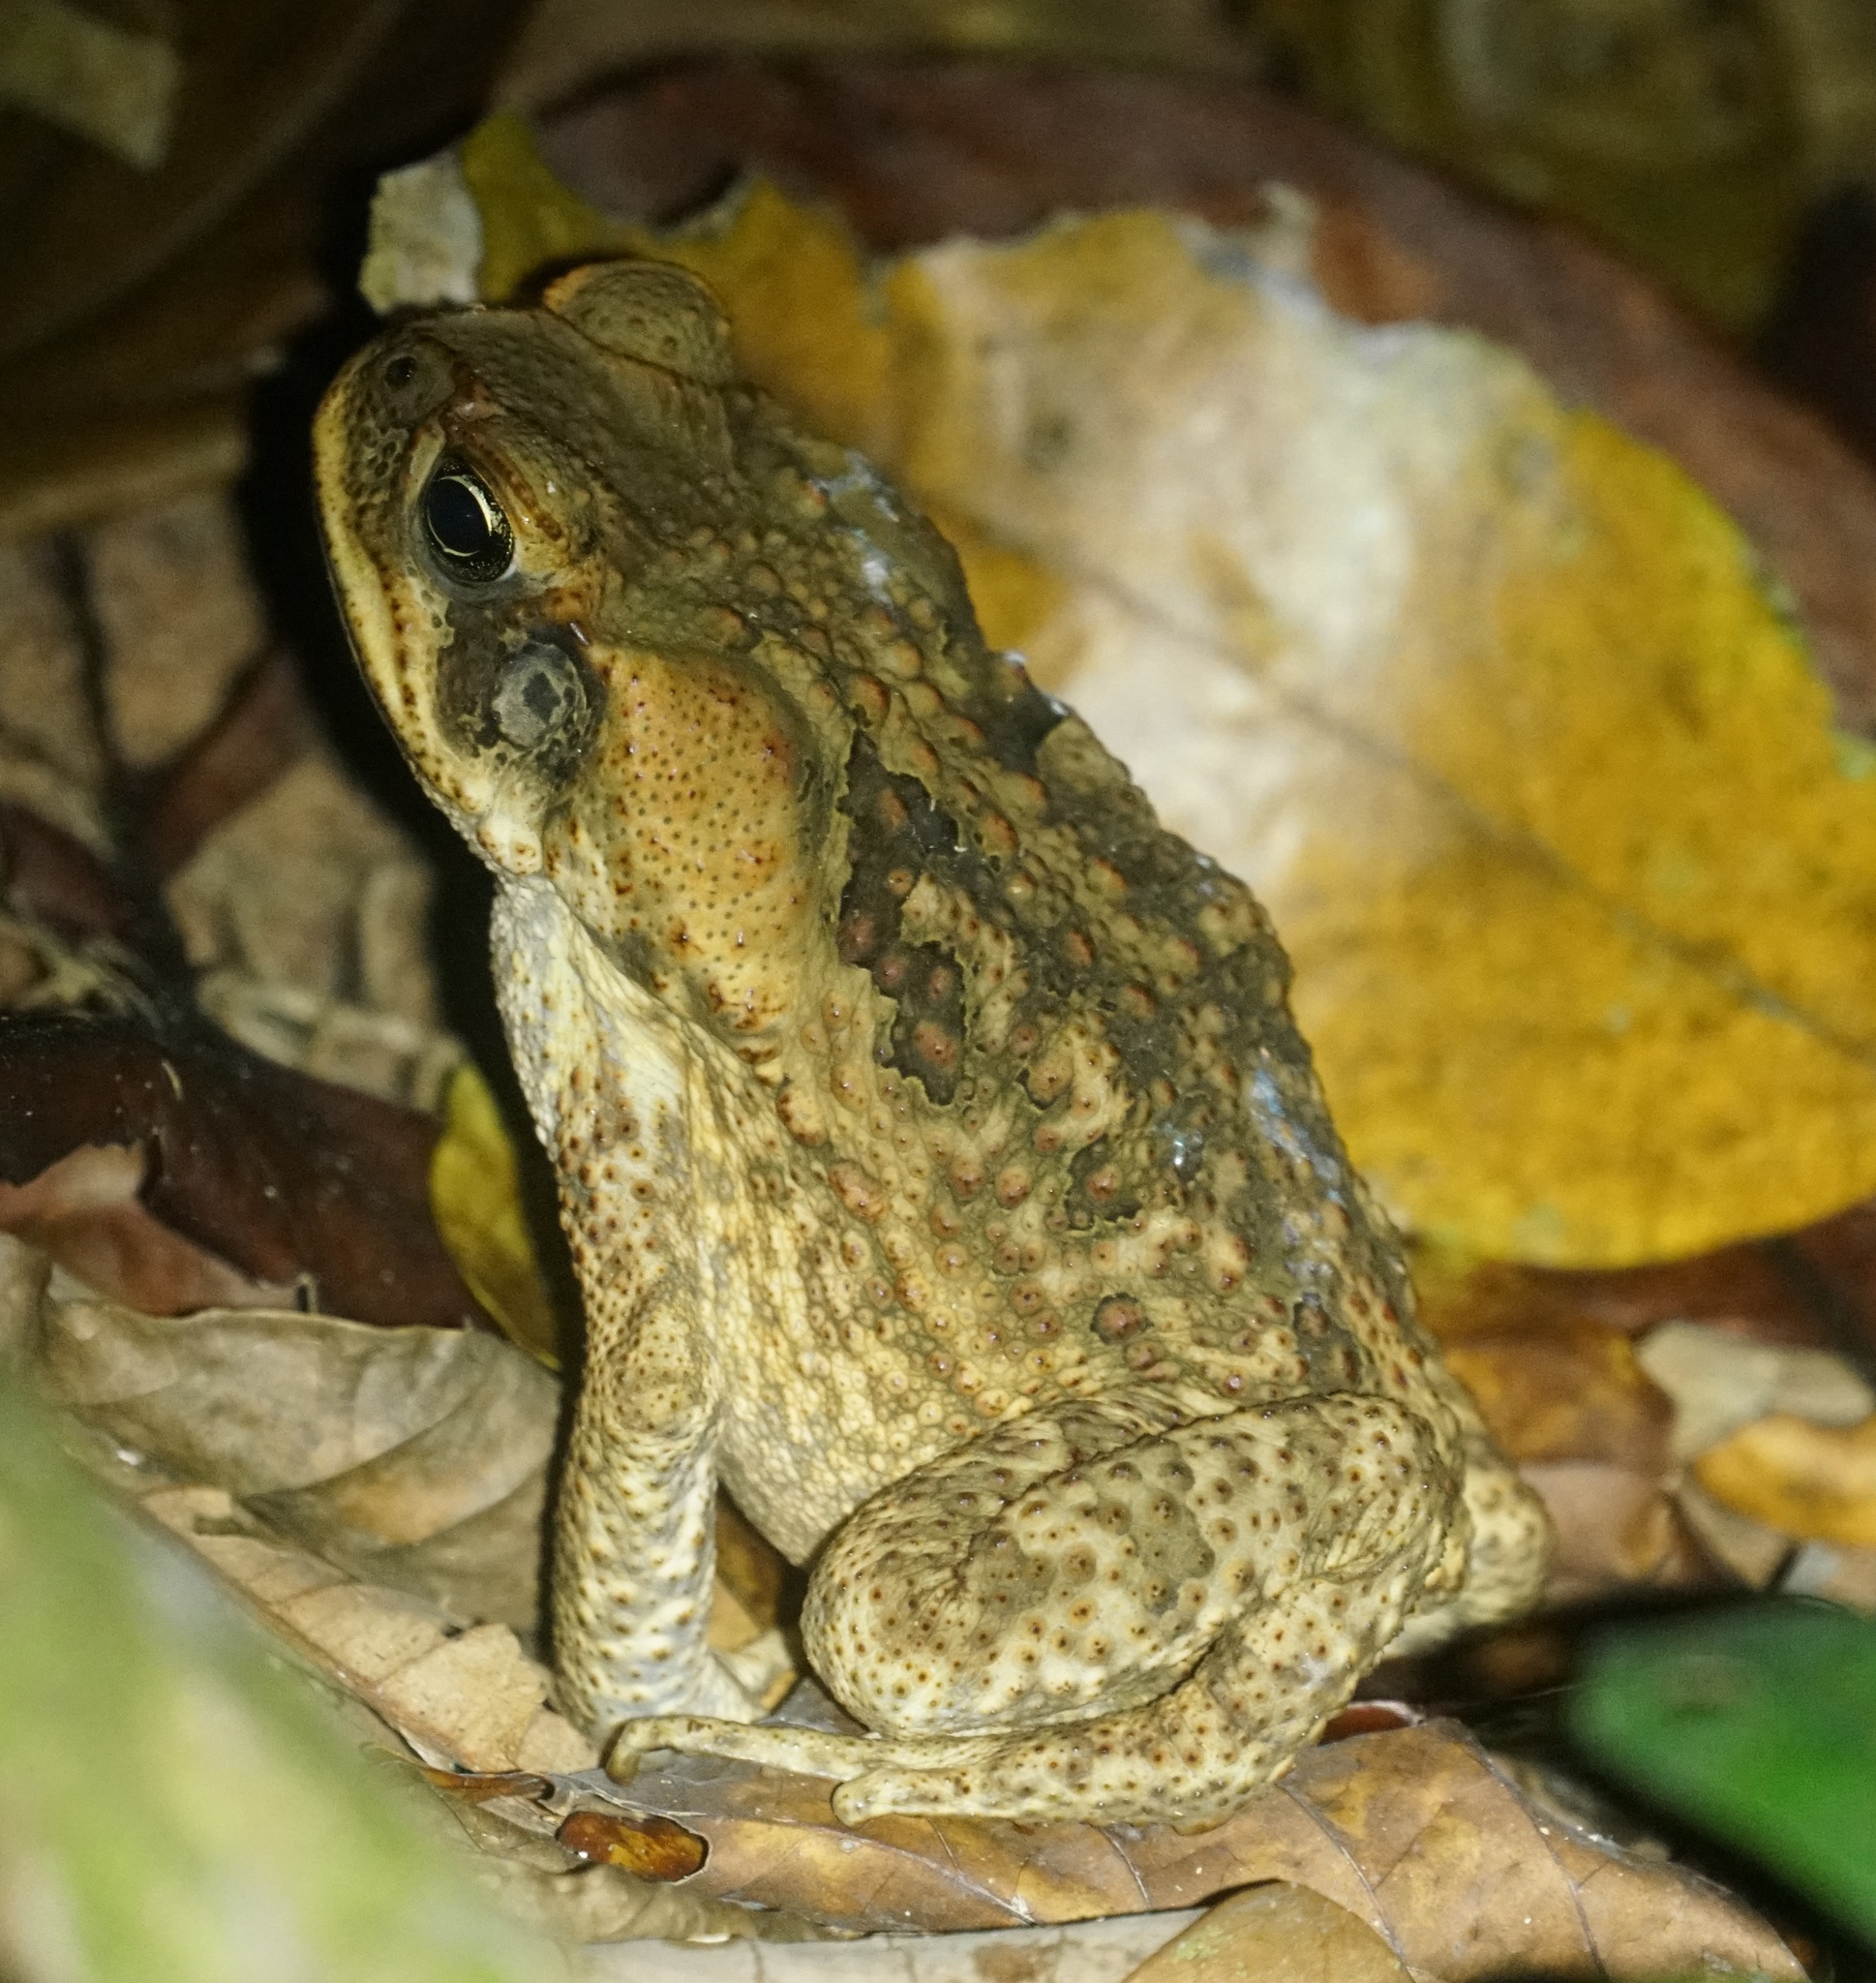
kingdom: Animalia
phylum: Chordata
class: Amphibia
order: Anura
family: Bufonidae
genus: Rhinella
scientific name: Rhinella marina
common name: Cane toad
